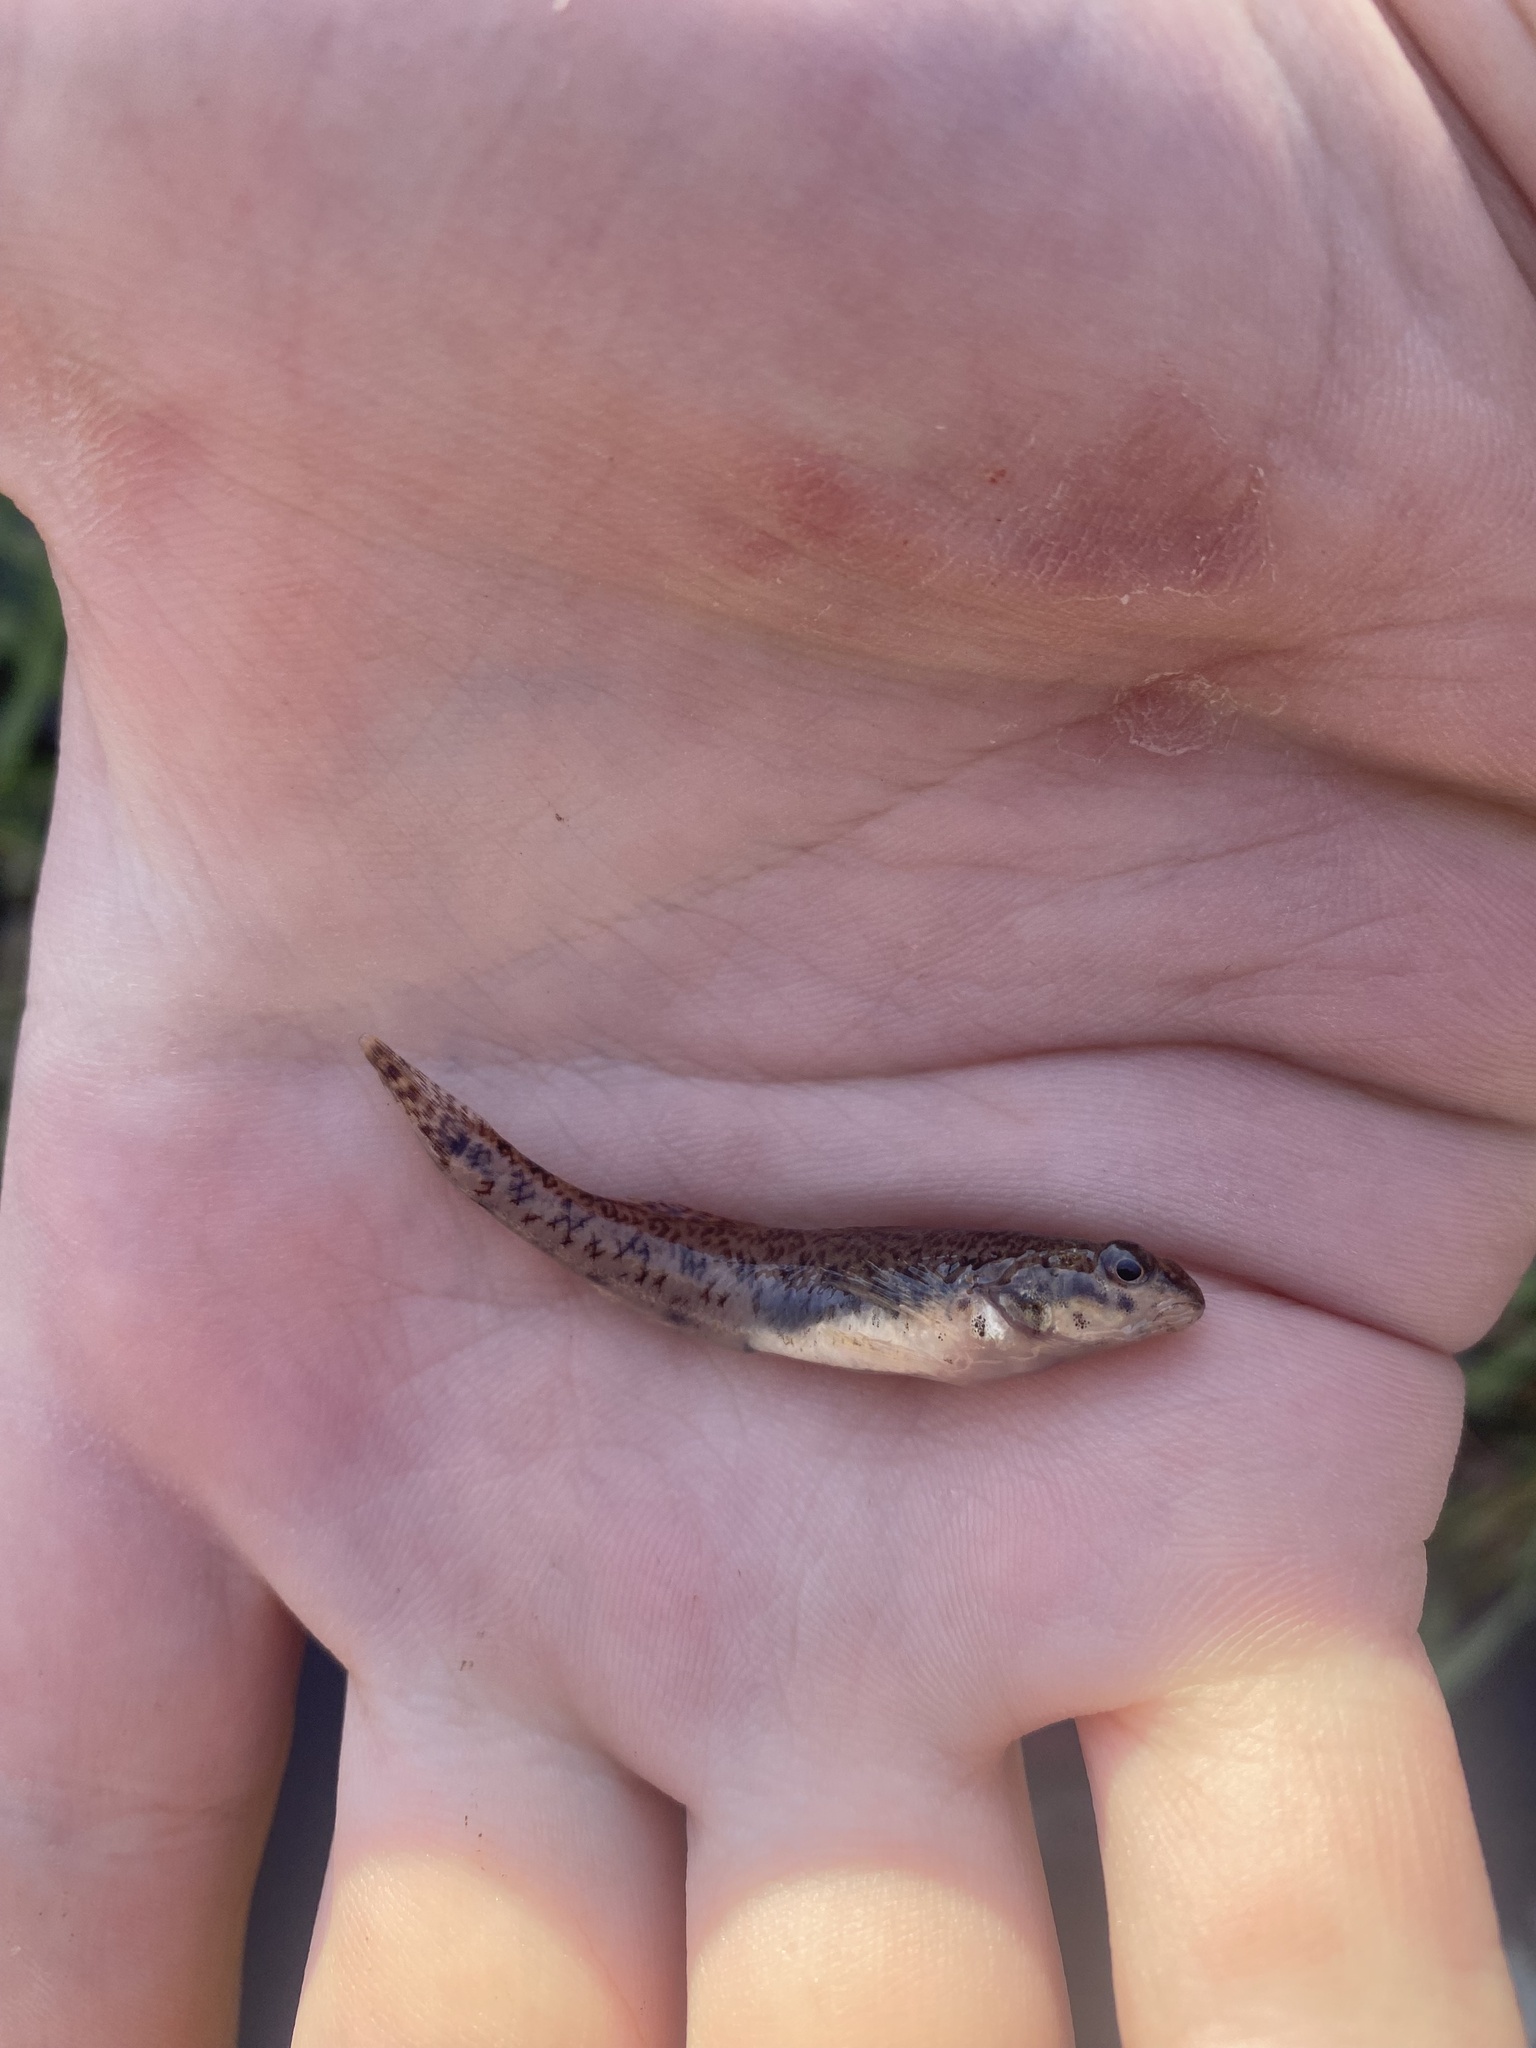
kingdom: Animalia
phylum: Chordata
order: Perciformes
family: Percidae
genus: Etheostoma
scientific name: Etheostoma nigrum
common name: Johnny darter
